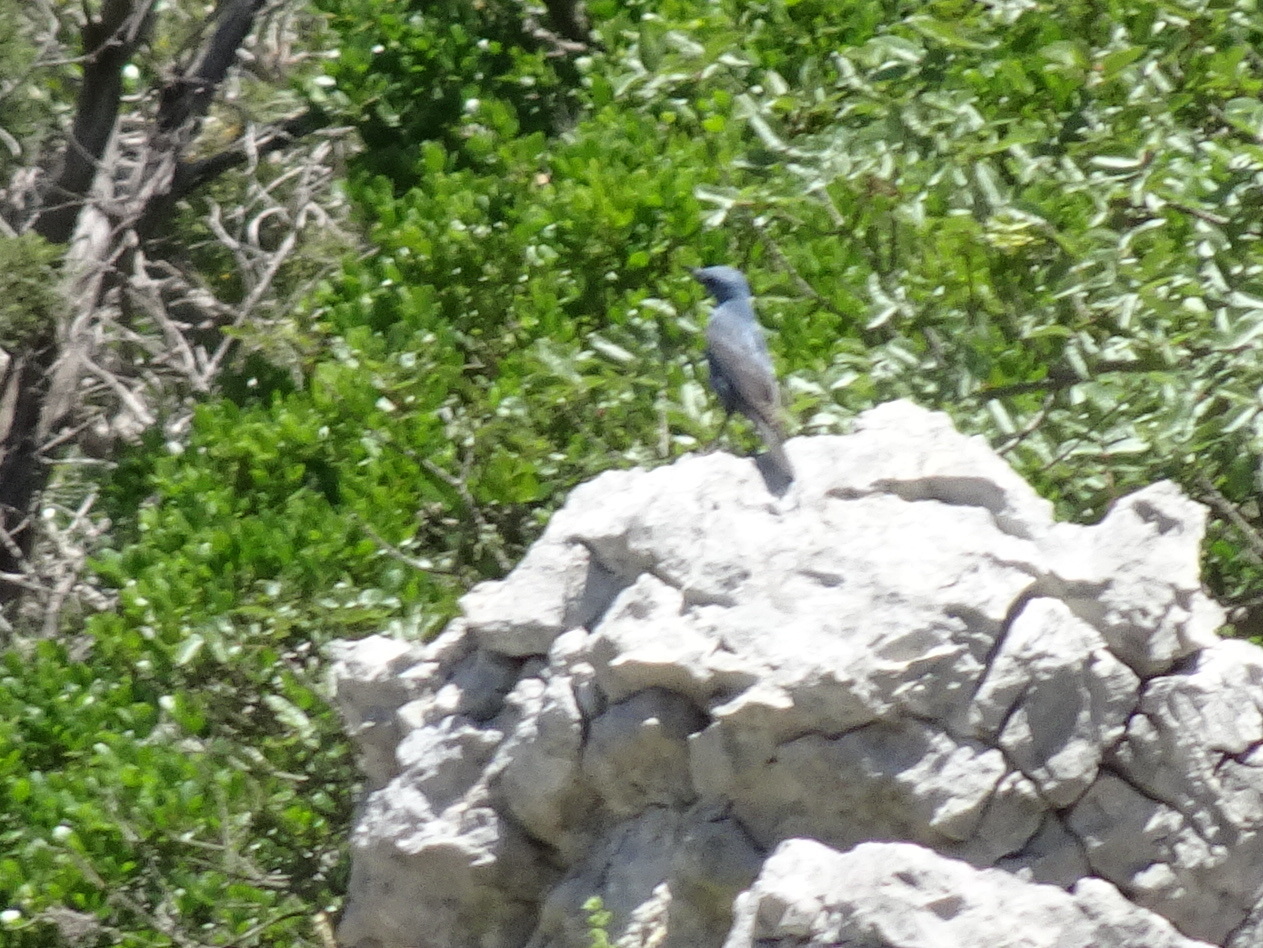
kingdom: Animalia
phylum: Chordata
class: Aves
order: Passeriformes
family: Muscicapidae
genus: Monticola
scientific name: Monticola solitarius
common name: Blue rock thrush
